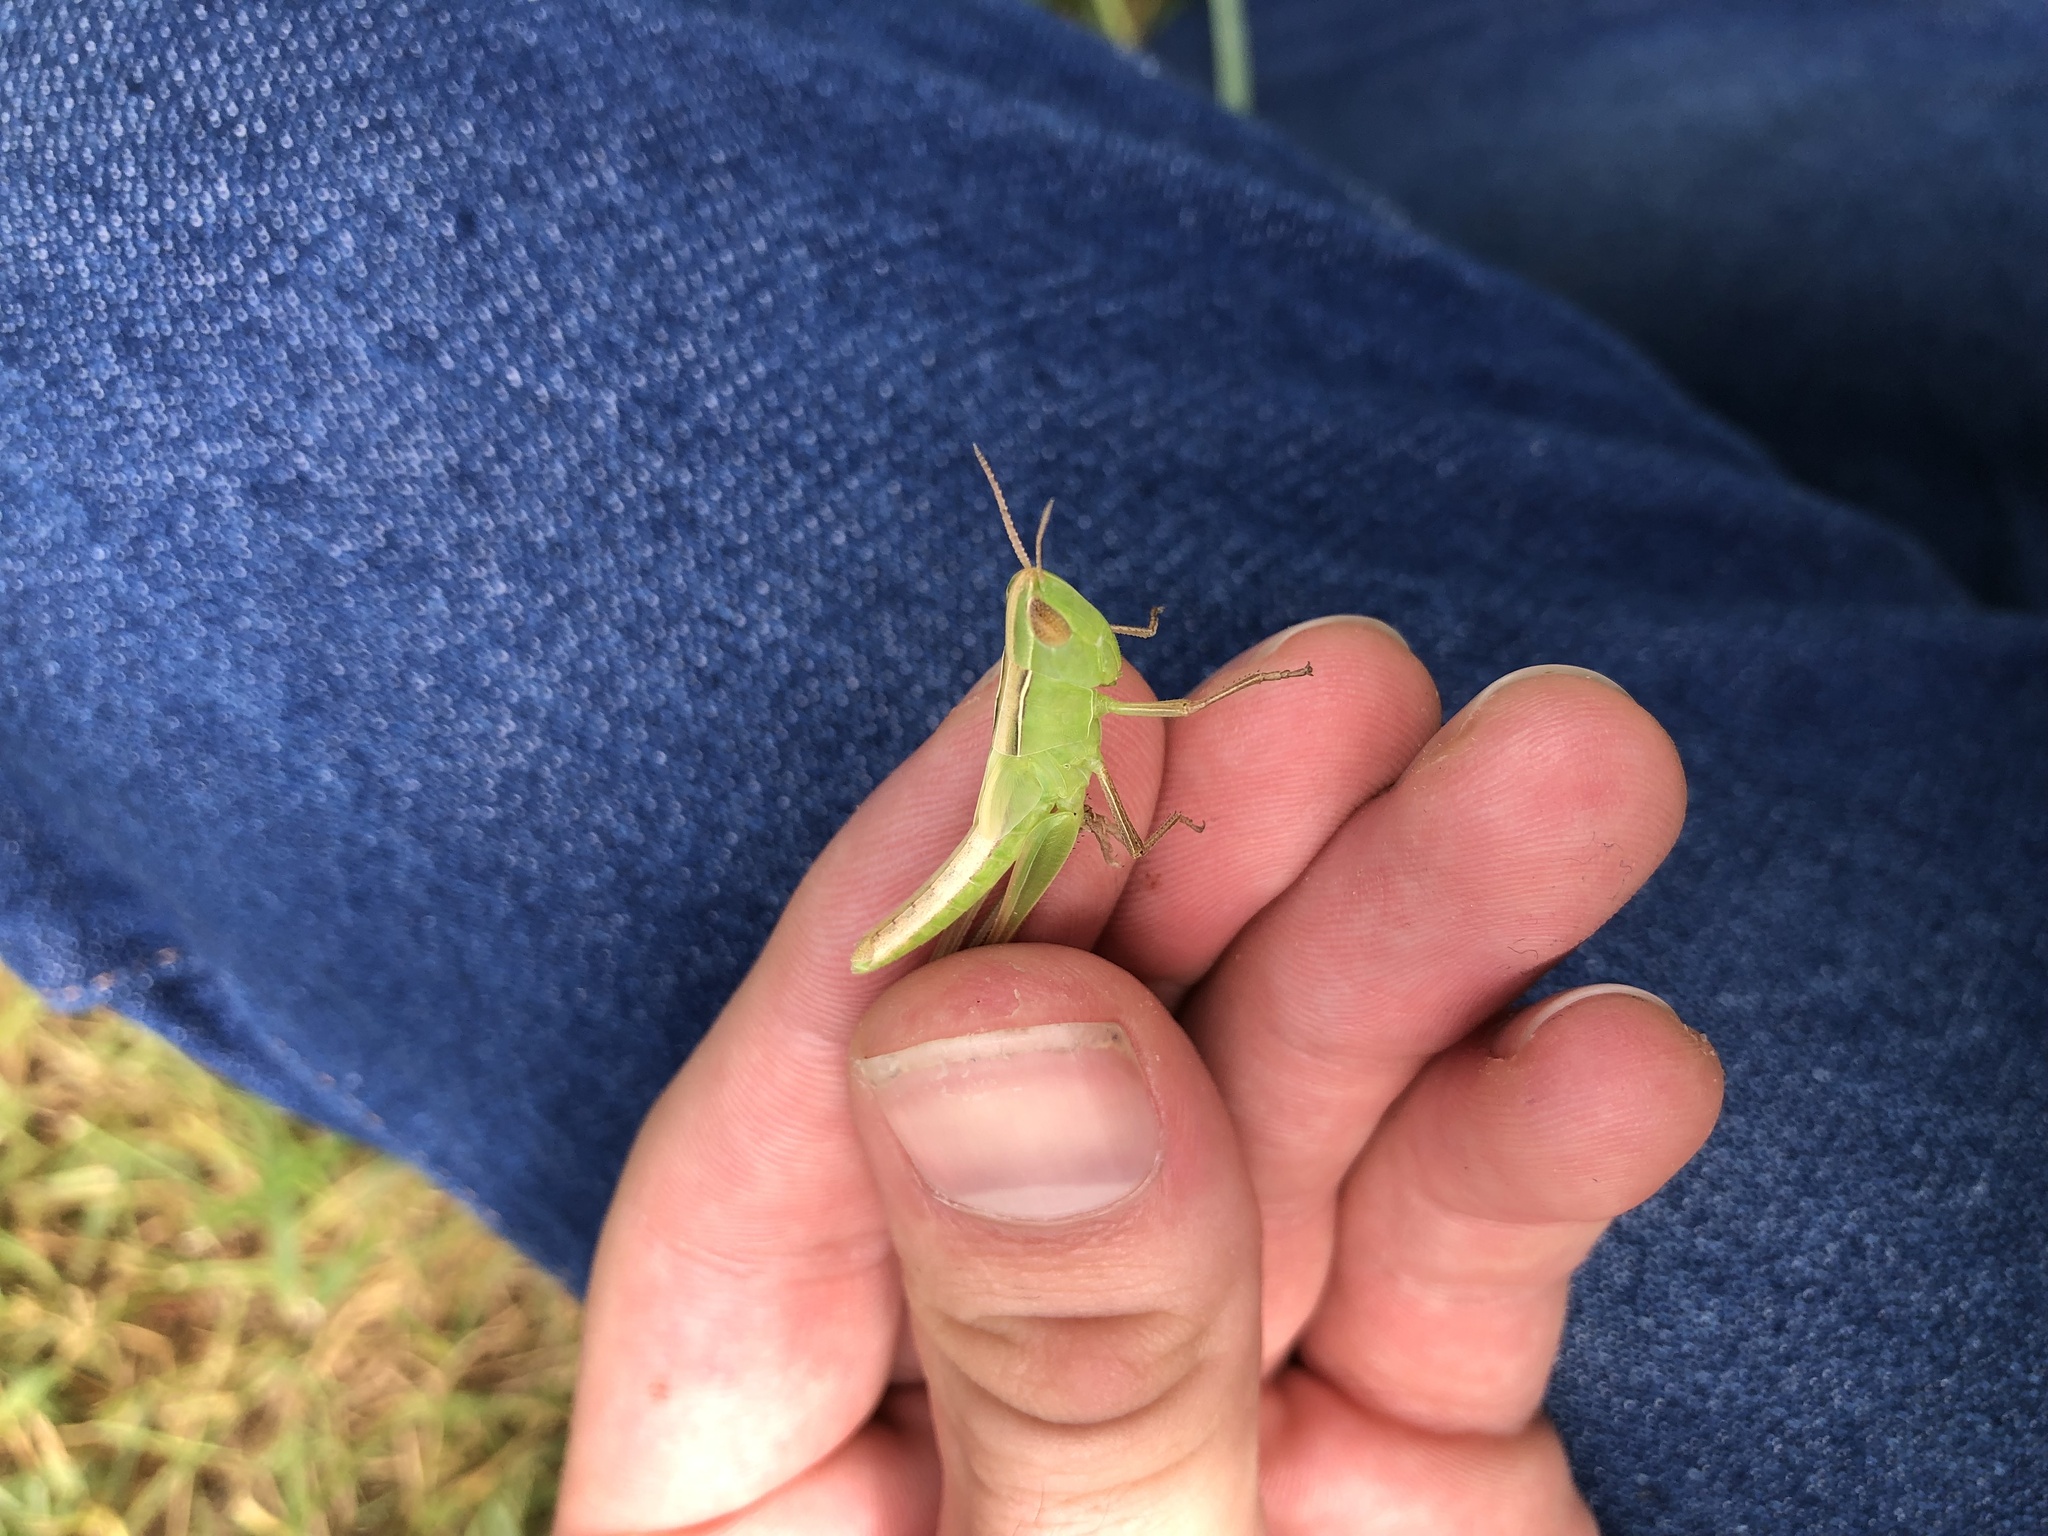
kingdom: Animalia
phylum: Arthropoda
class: Insecta
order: Orthoptera
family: Acrididae
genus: Syrbula
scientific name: Syrbula admirabilis
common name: Handsome grasshopper
